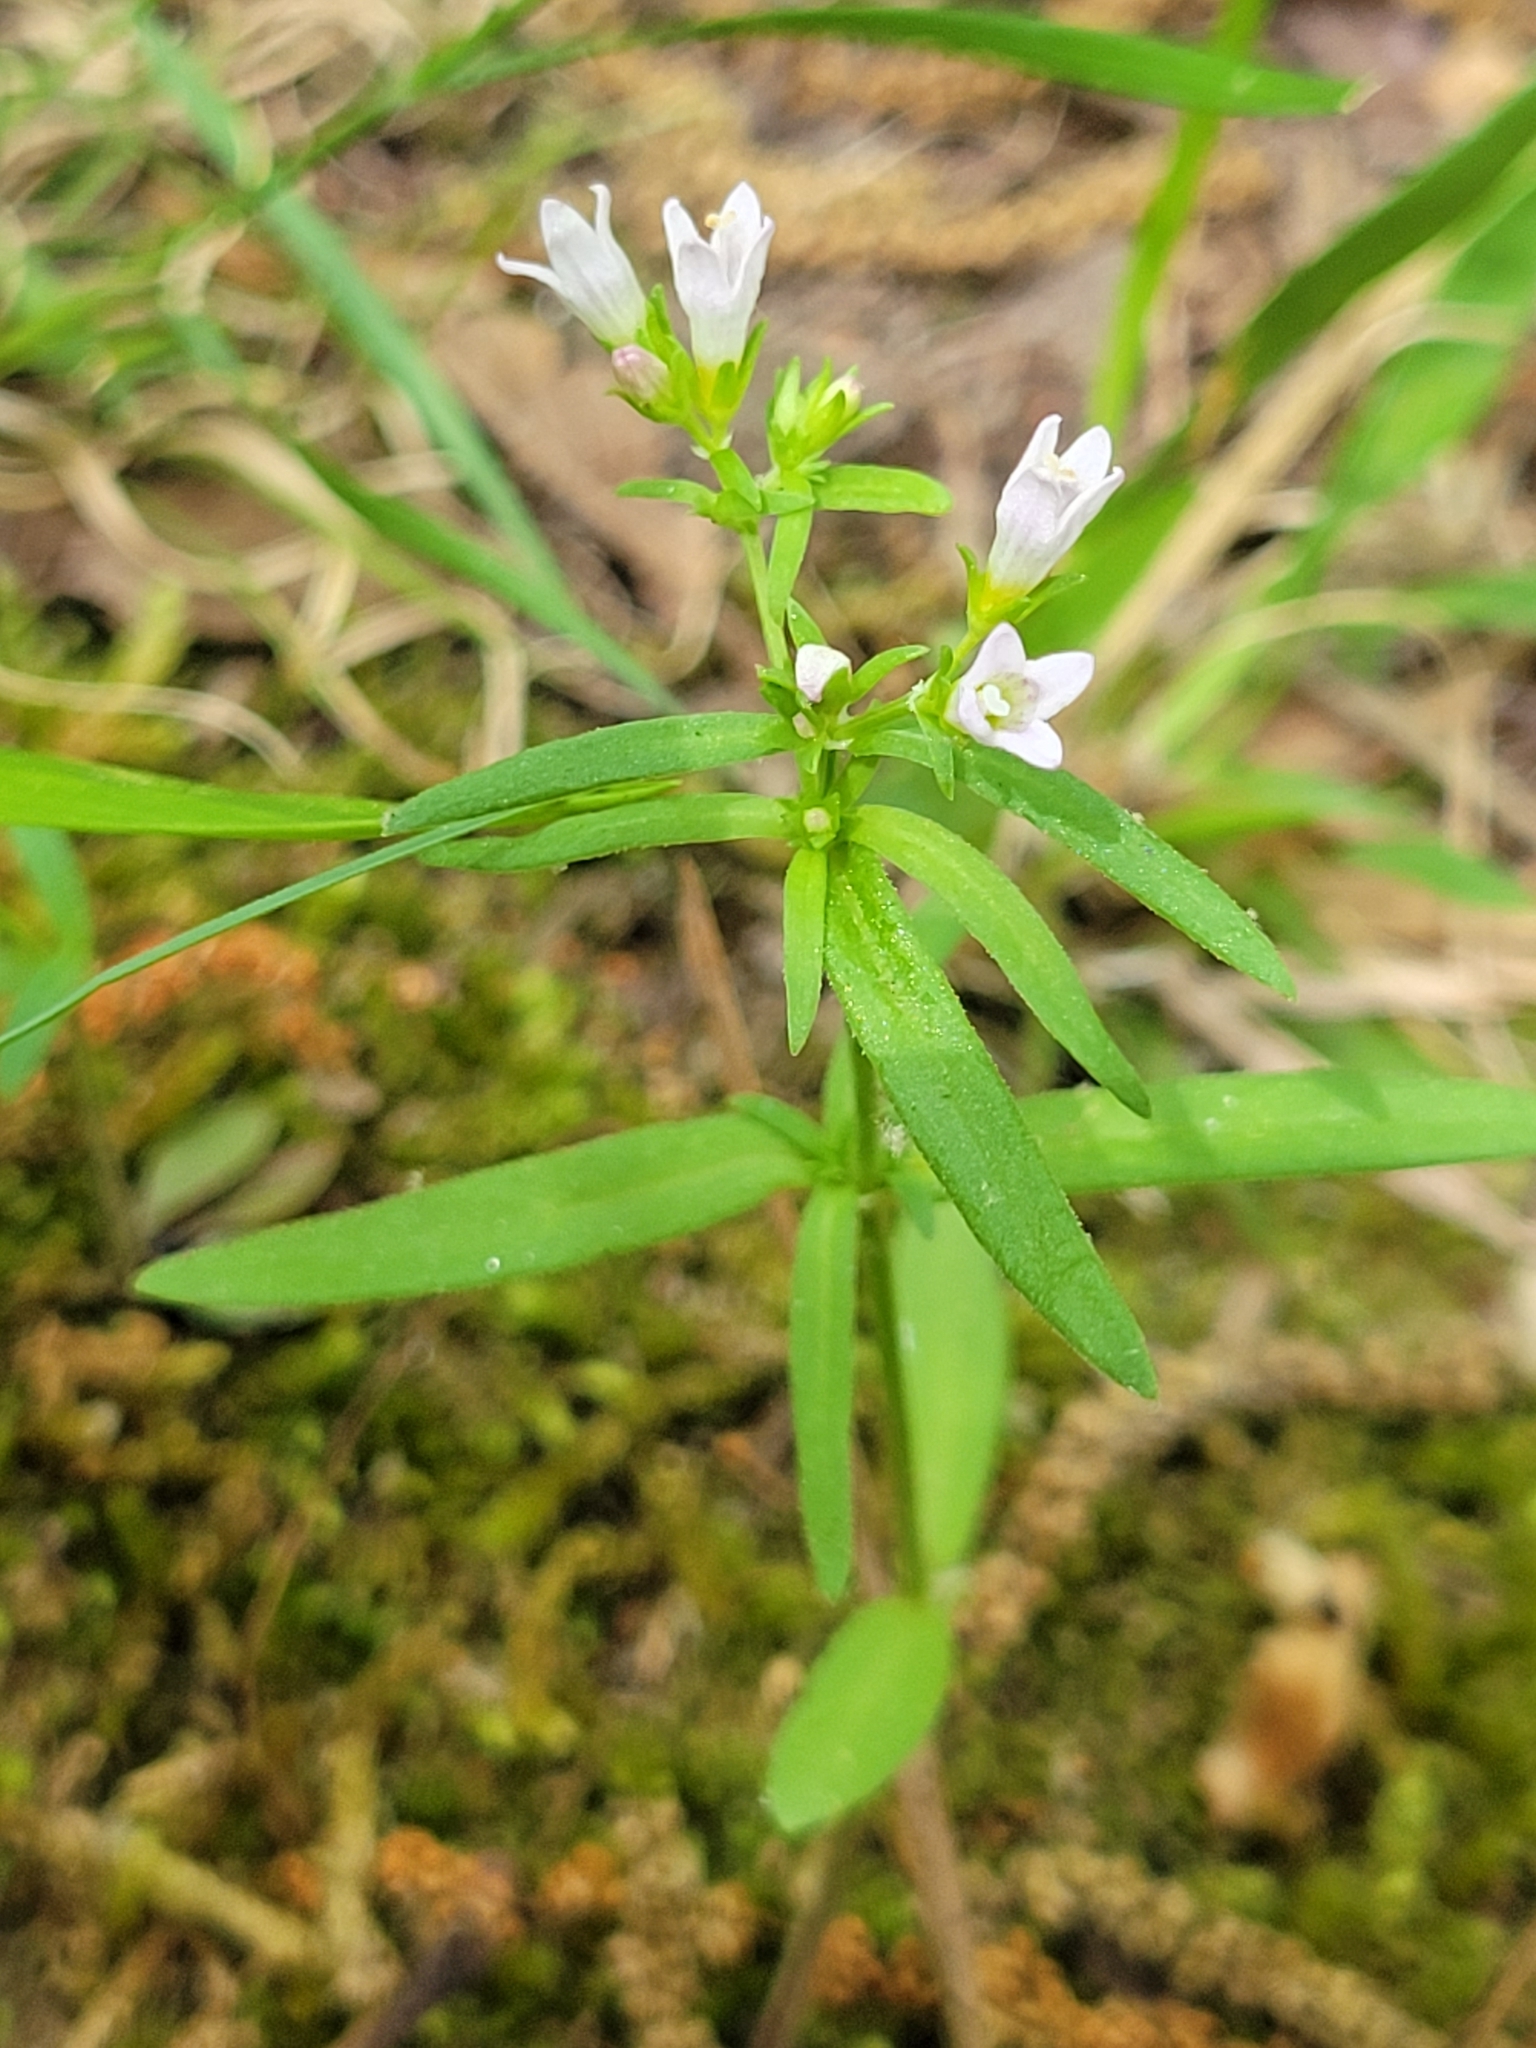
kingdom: Plantae
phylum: Tracheophyta
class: Magnoliopsida
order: Gentianales
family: Rubiaceae
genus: Houstonia
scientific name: Houstonia longifolia
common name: Long-leaved bluets
